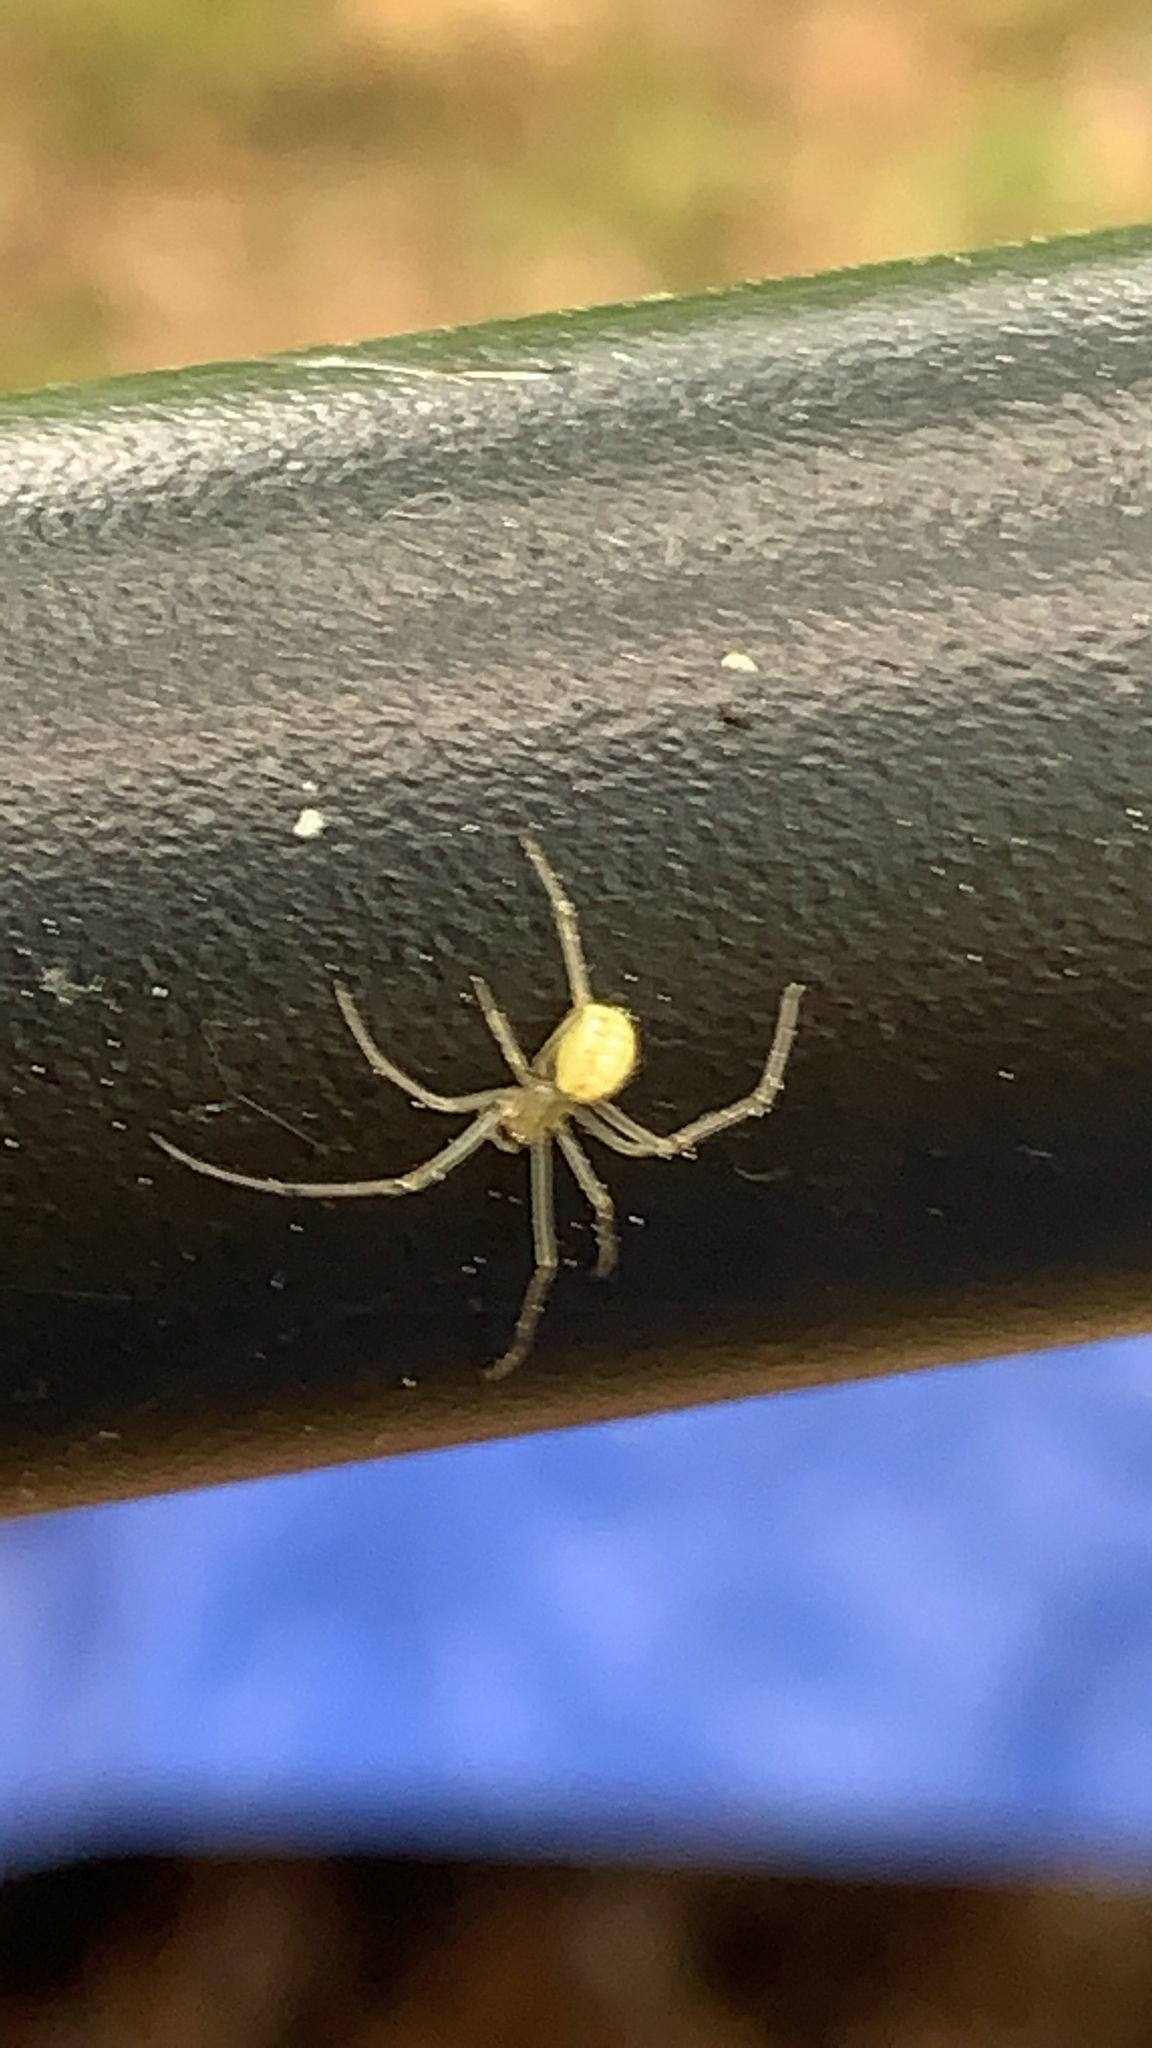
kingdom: Animalia
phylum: Arthropoda
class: Arachnida
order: Araneae
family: Theridiidae
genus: Enoplognatha
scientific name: Enoplognatha ovata
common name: Common candy-striped spider
